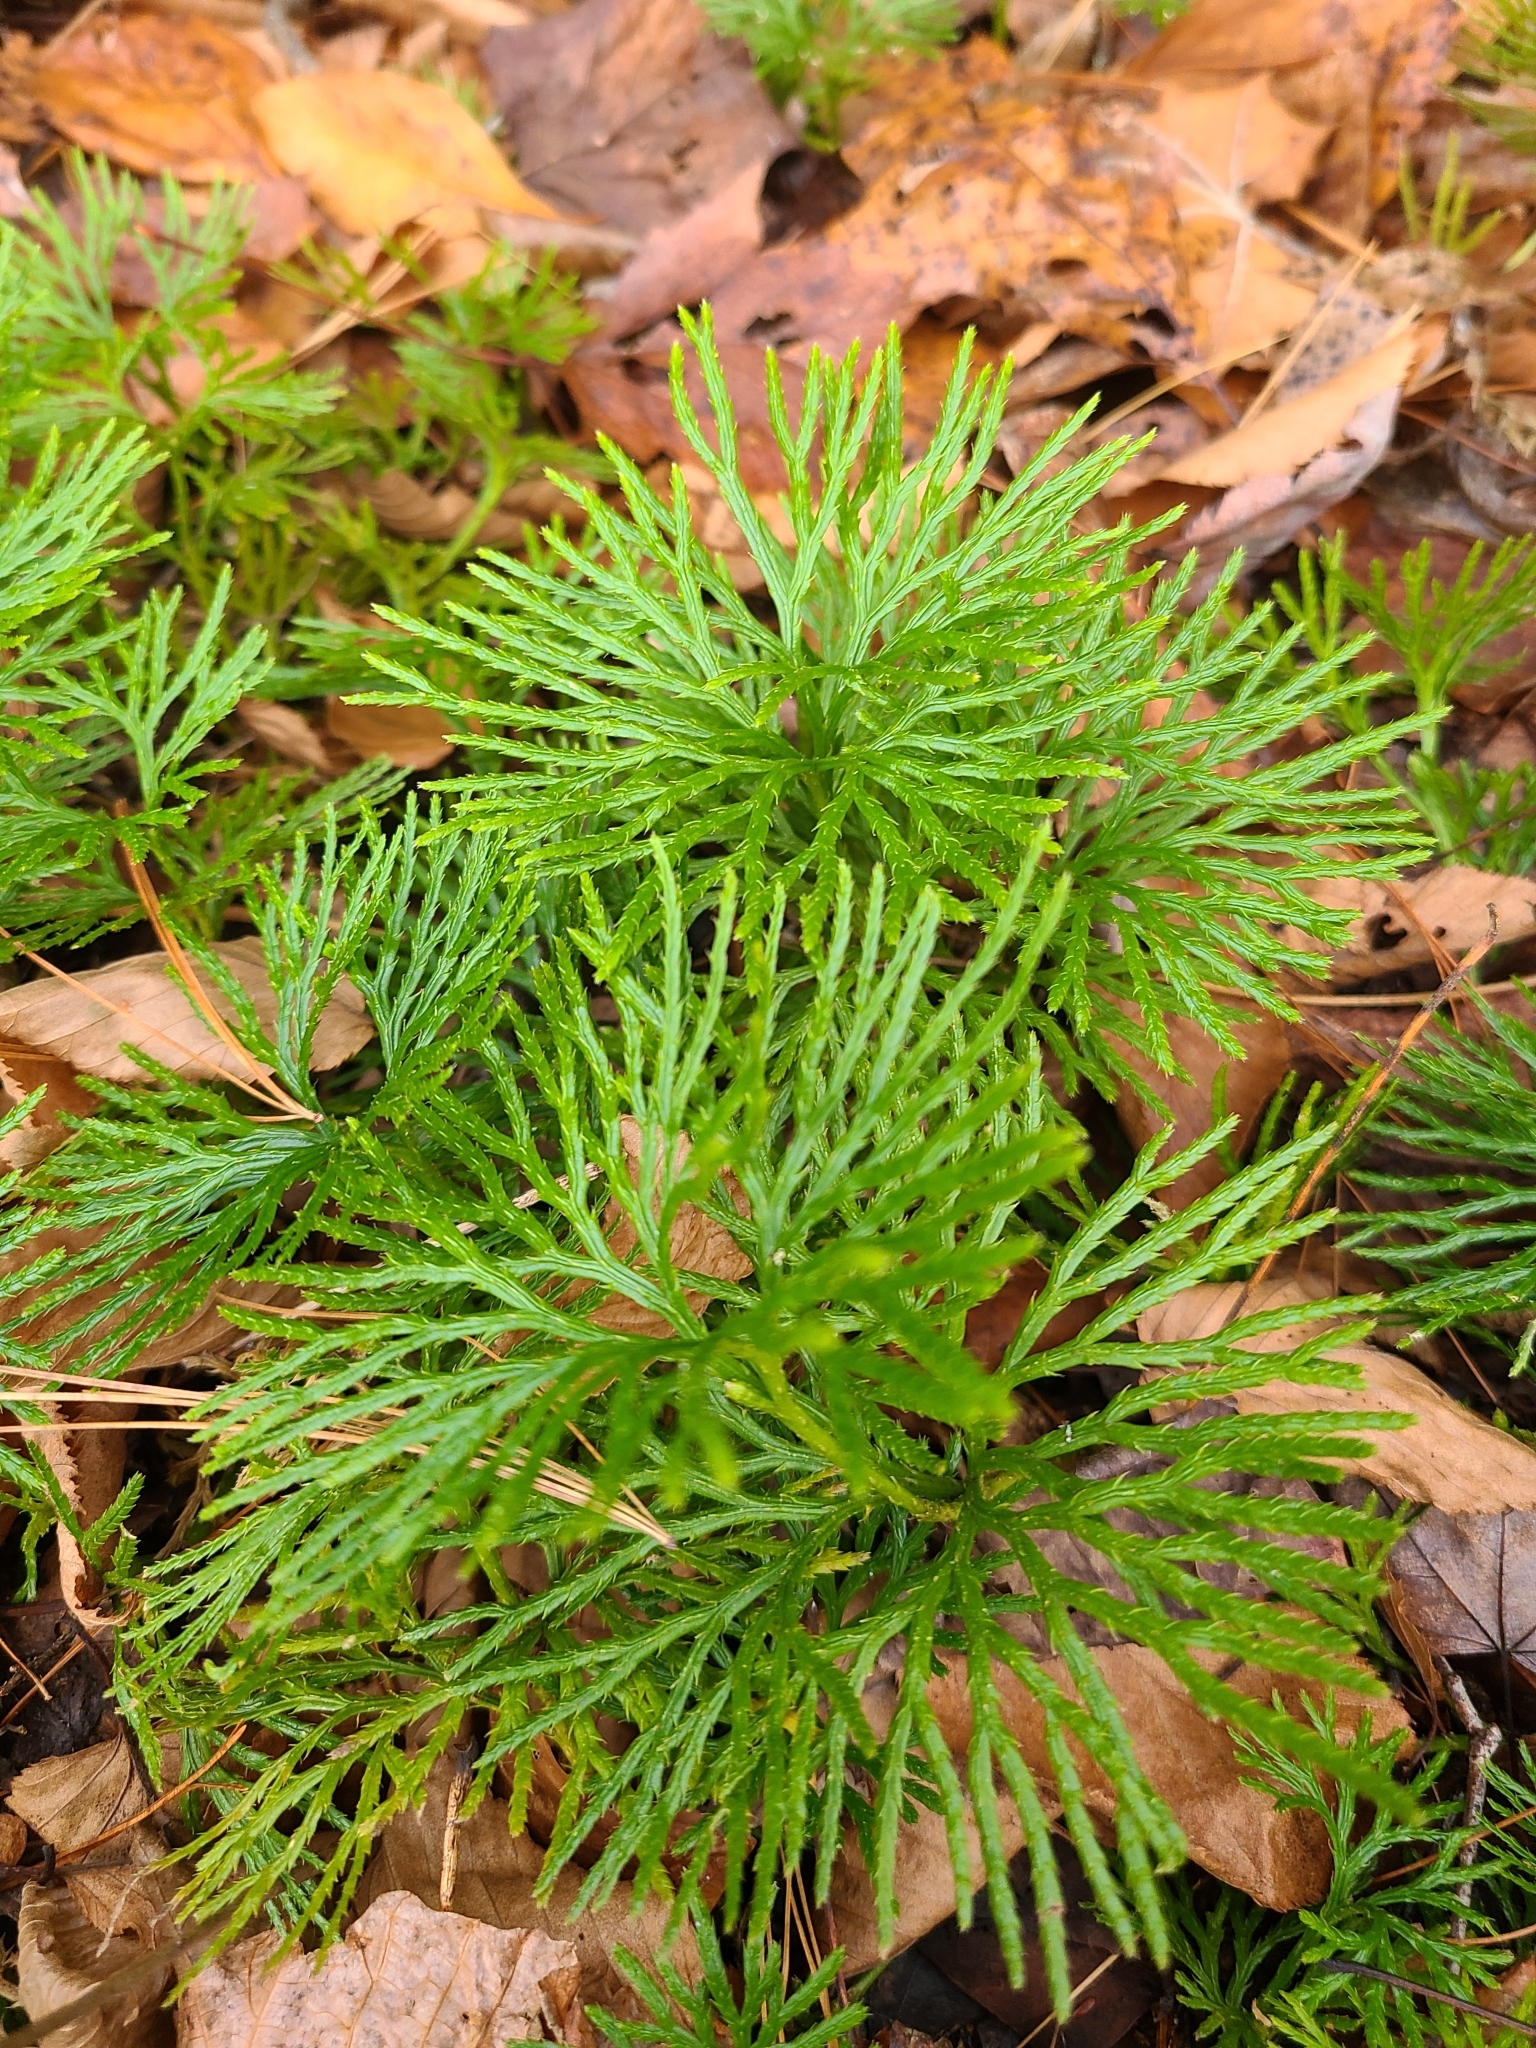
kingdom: Plantae
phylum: Tracheophyta
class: Lycopodiopsida
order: Lycopodiales
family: Lycopodiaceae
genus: Diphasiastrum
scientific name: Diphasiastrum digitatum
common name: Southern running-pine
